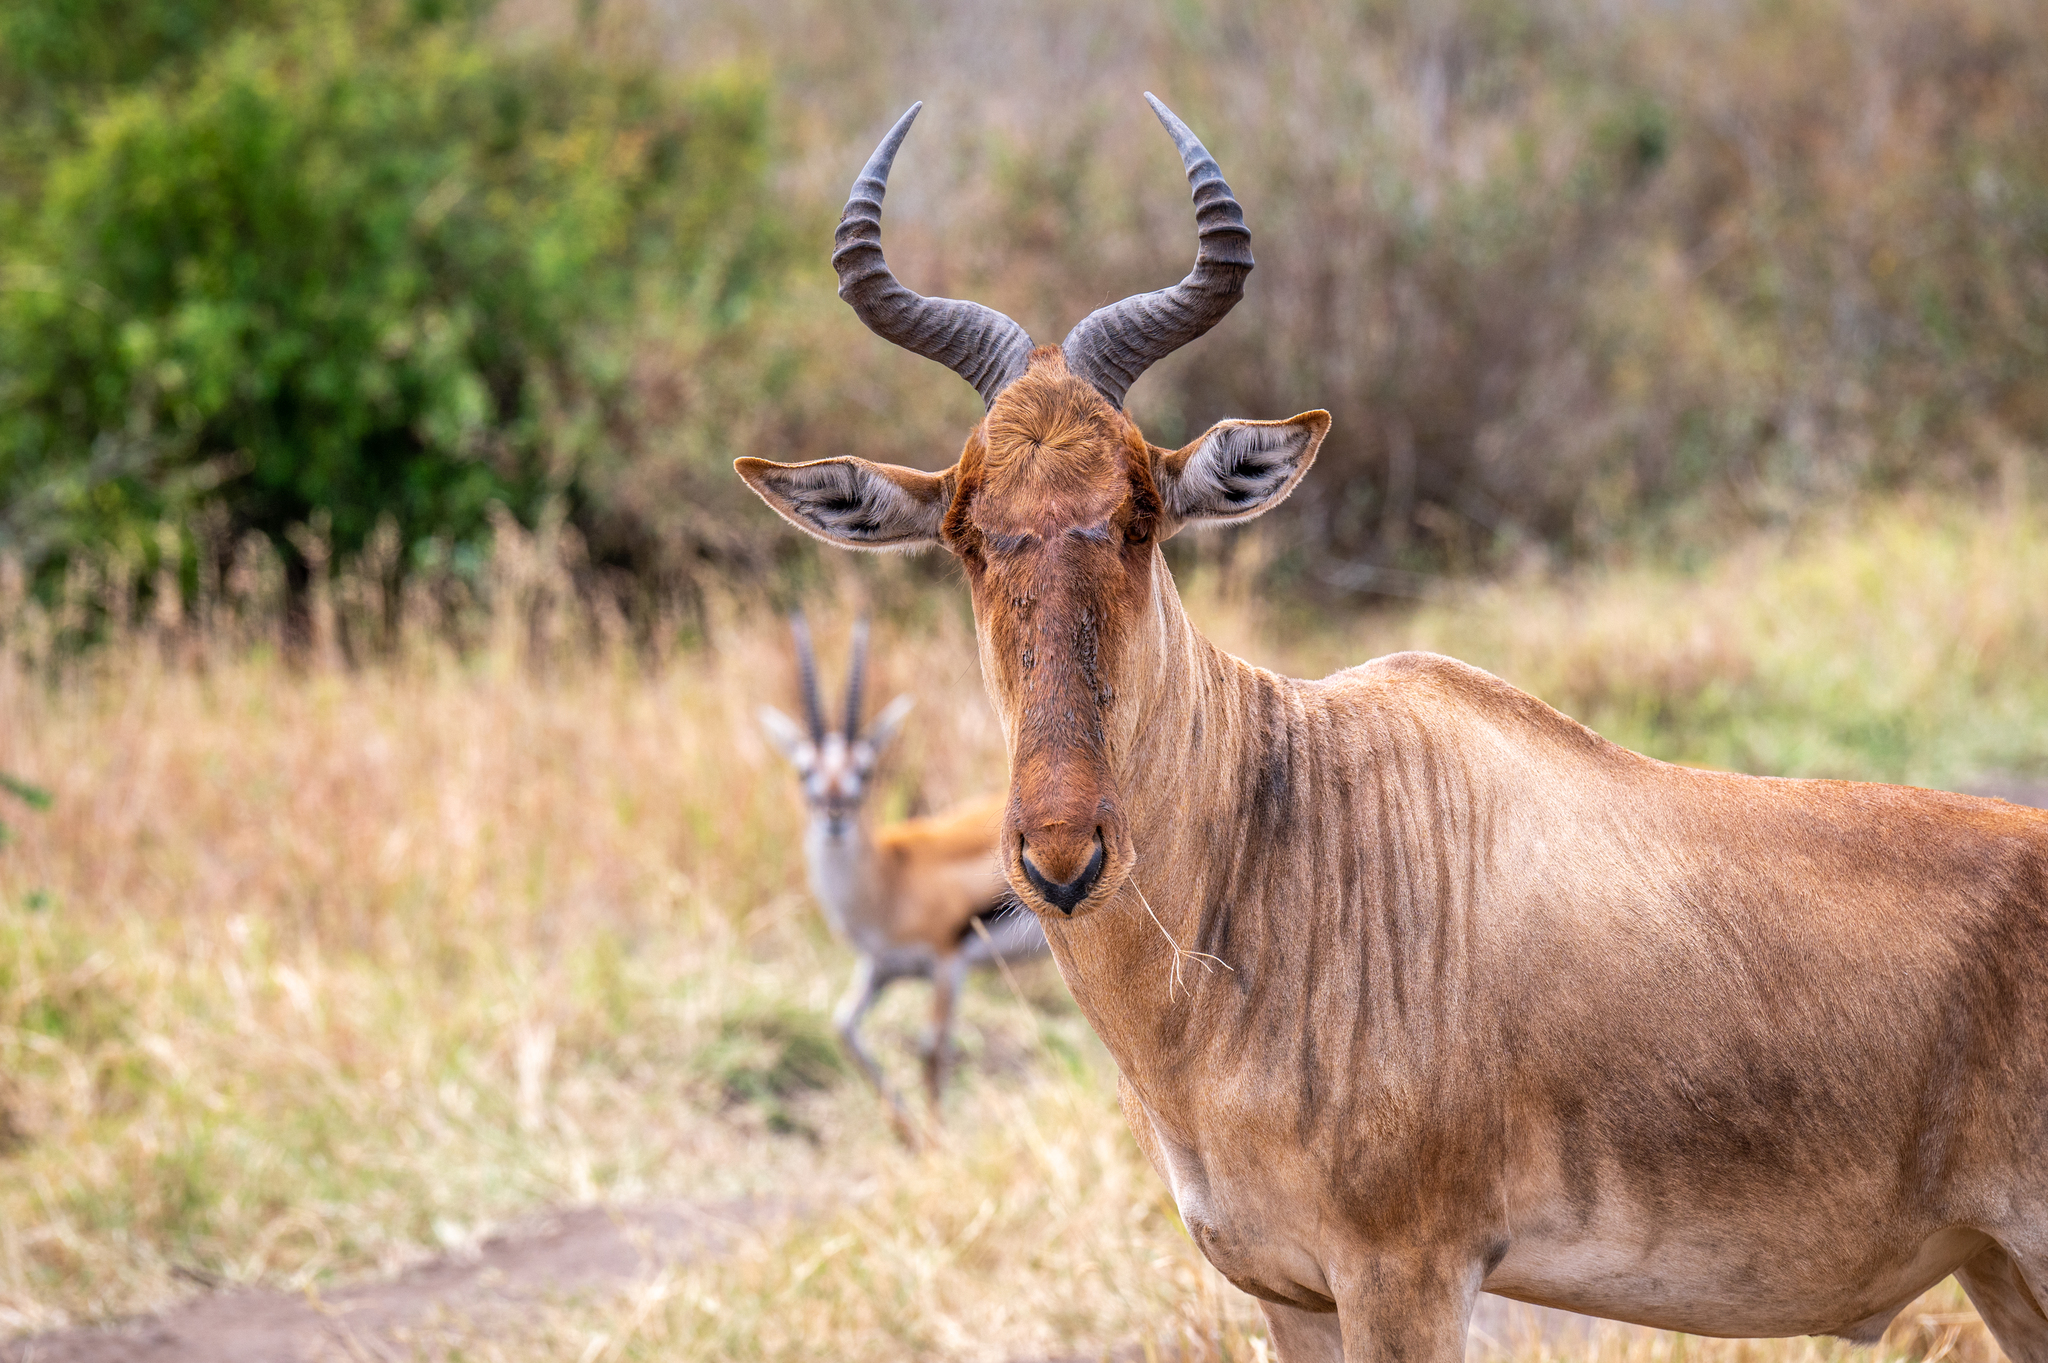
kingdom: Animalia
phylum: Chordata
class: Mammalia
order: Artiodactyla
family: Bovidae
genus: Alcelaphus
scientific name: Alcelaphus buselaphus
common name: Hartebeest
